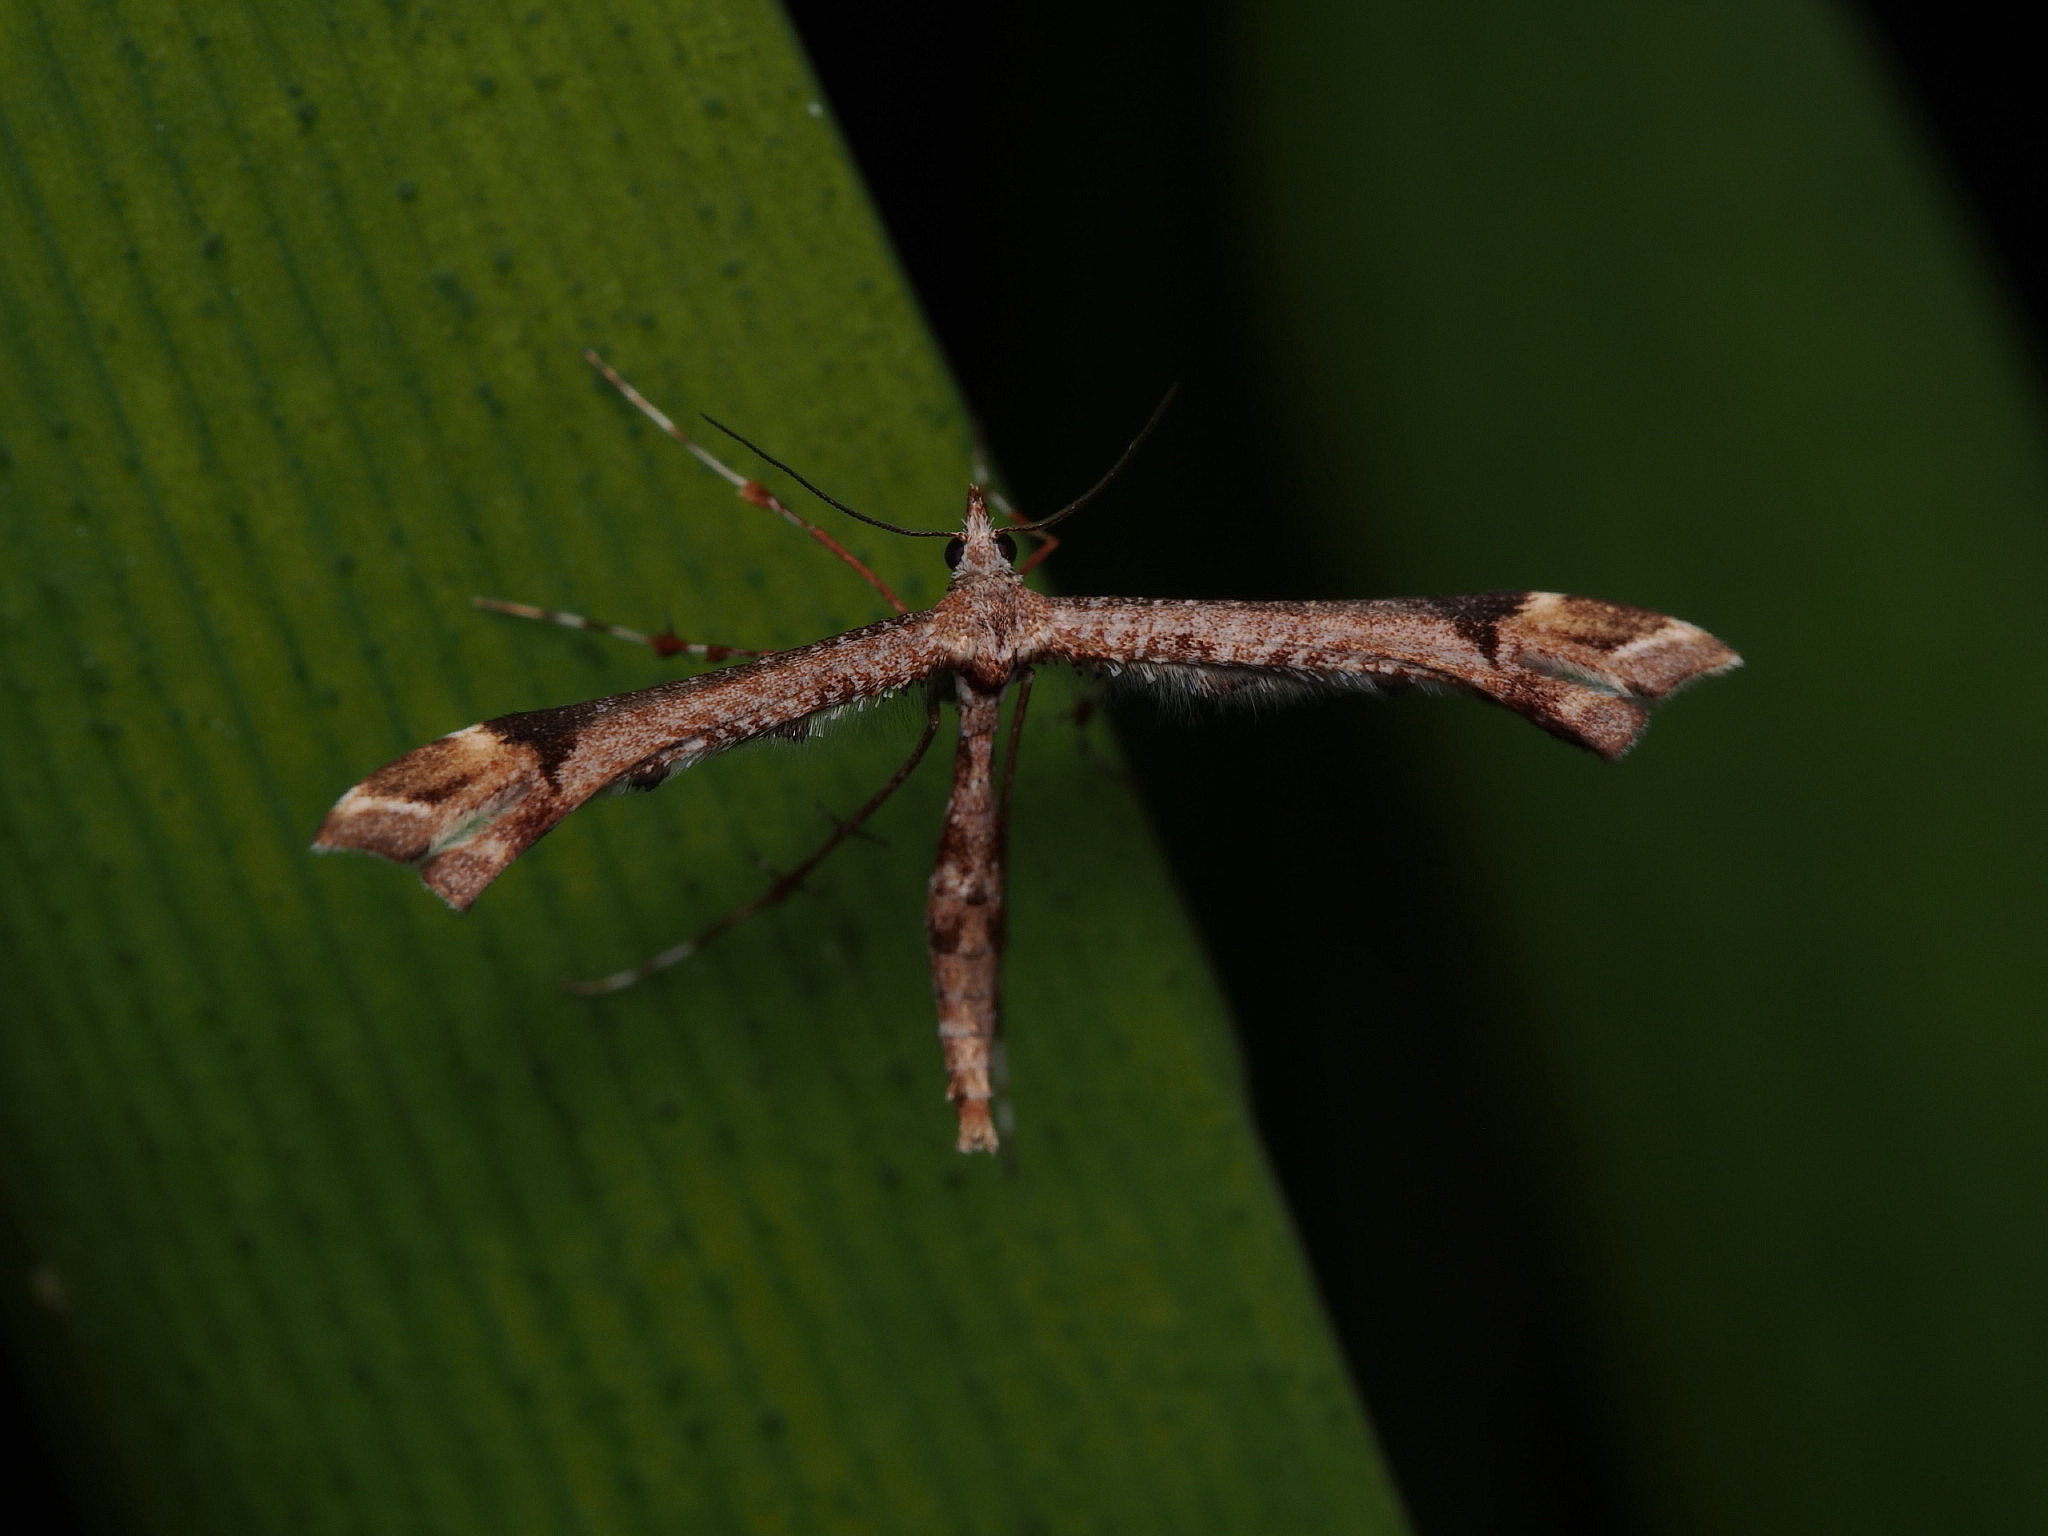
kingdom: Animalia
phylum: Arthropoda
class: Insecta
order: Lepidoptera
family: Pterophoridae
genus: Amblyptilia
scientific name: Amblyptilia falcatalis
